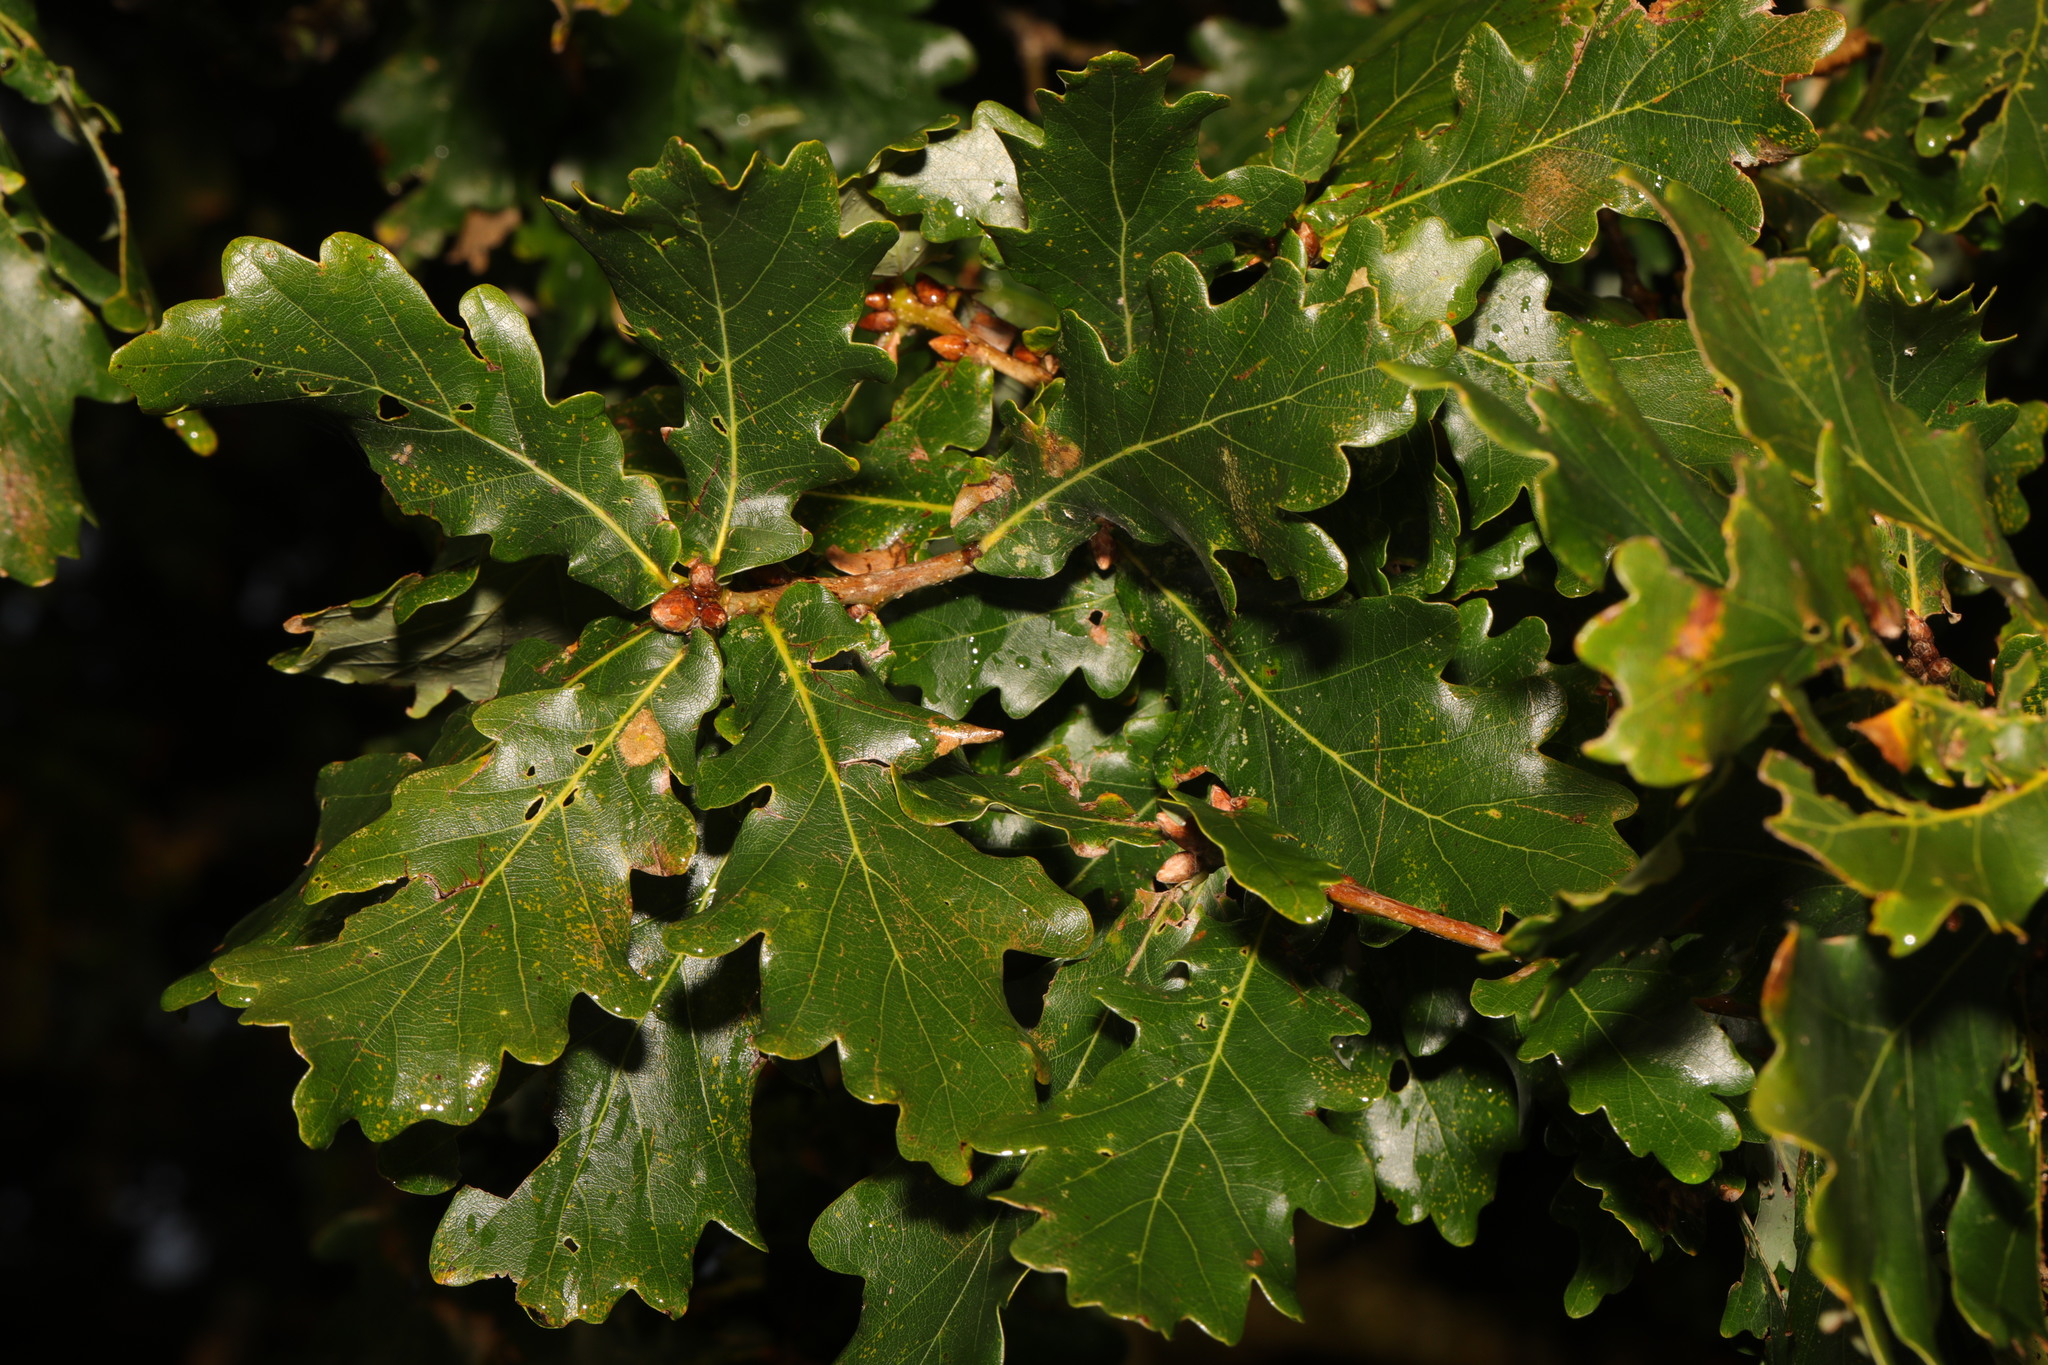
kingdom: Plantae
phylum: Tracheophyta
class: Magnoliopsida
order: Fagales
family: Fagaceae
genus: Quercus
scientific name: Quercus robur
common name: Pedunculate oak
